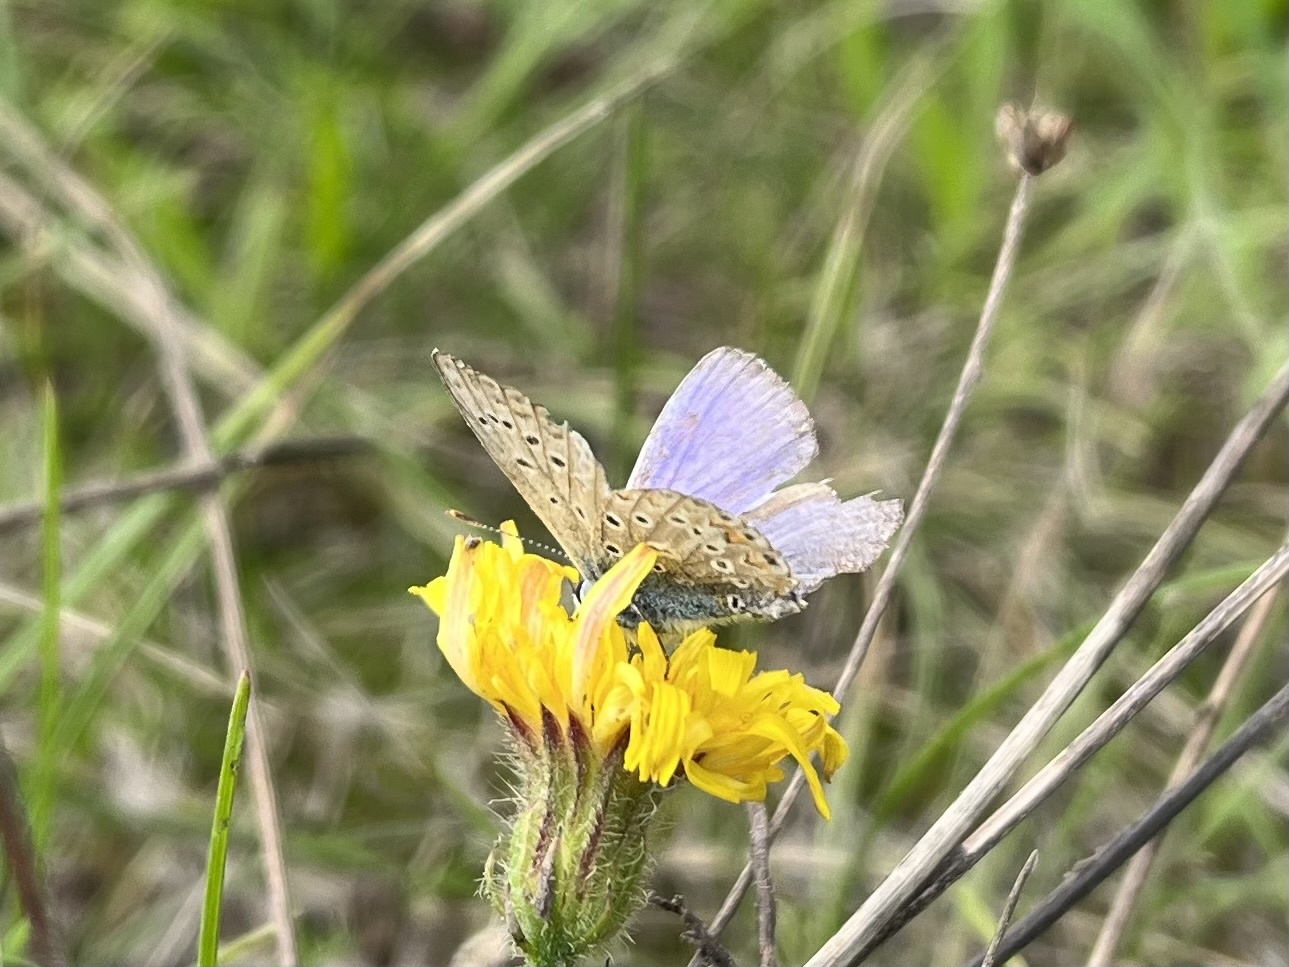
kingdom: Animalia
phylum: Arthropoda
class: Insecta
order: Lepidoptera
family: Lycaenidae
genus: Polyommatus
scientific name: Polyommatus icarus
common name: Common blue
